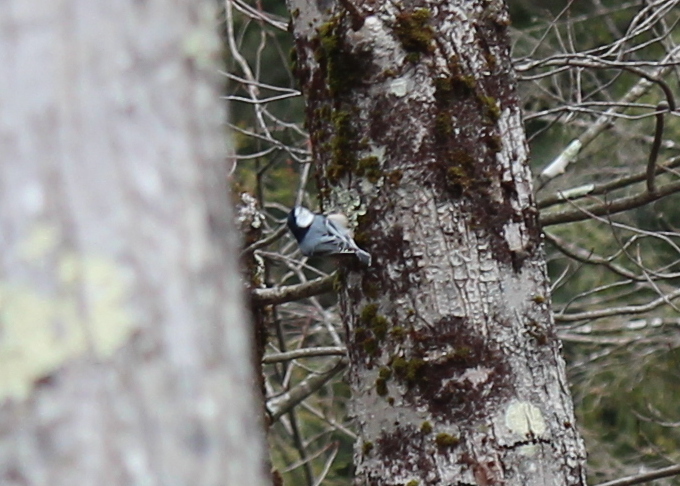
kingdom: Animalia
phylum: Chordata
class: Aves
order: Passeriformes
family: Sittidae
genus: Sitta
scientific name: Sitta carolinensis
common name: White-breasted nuthatch
